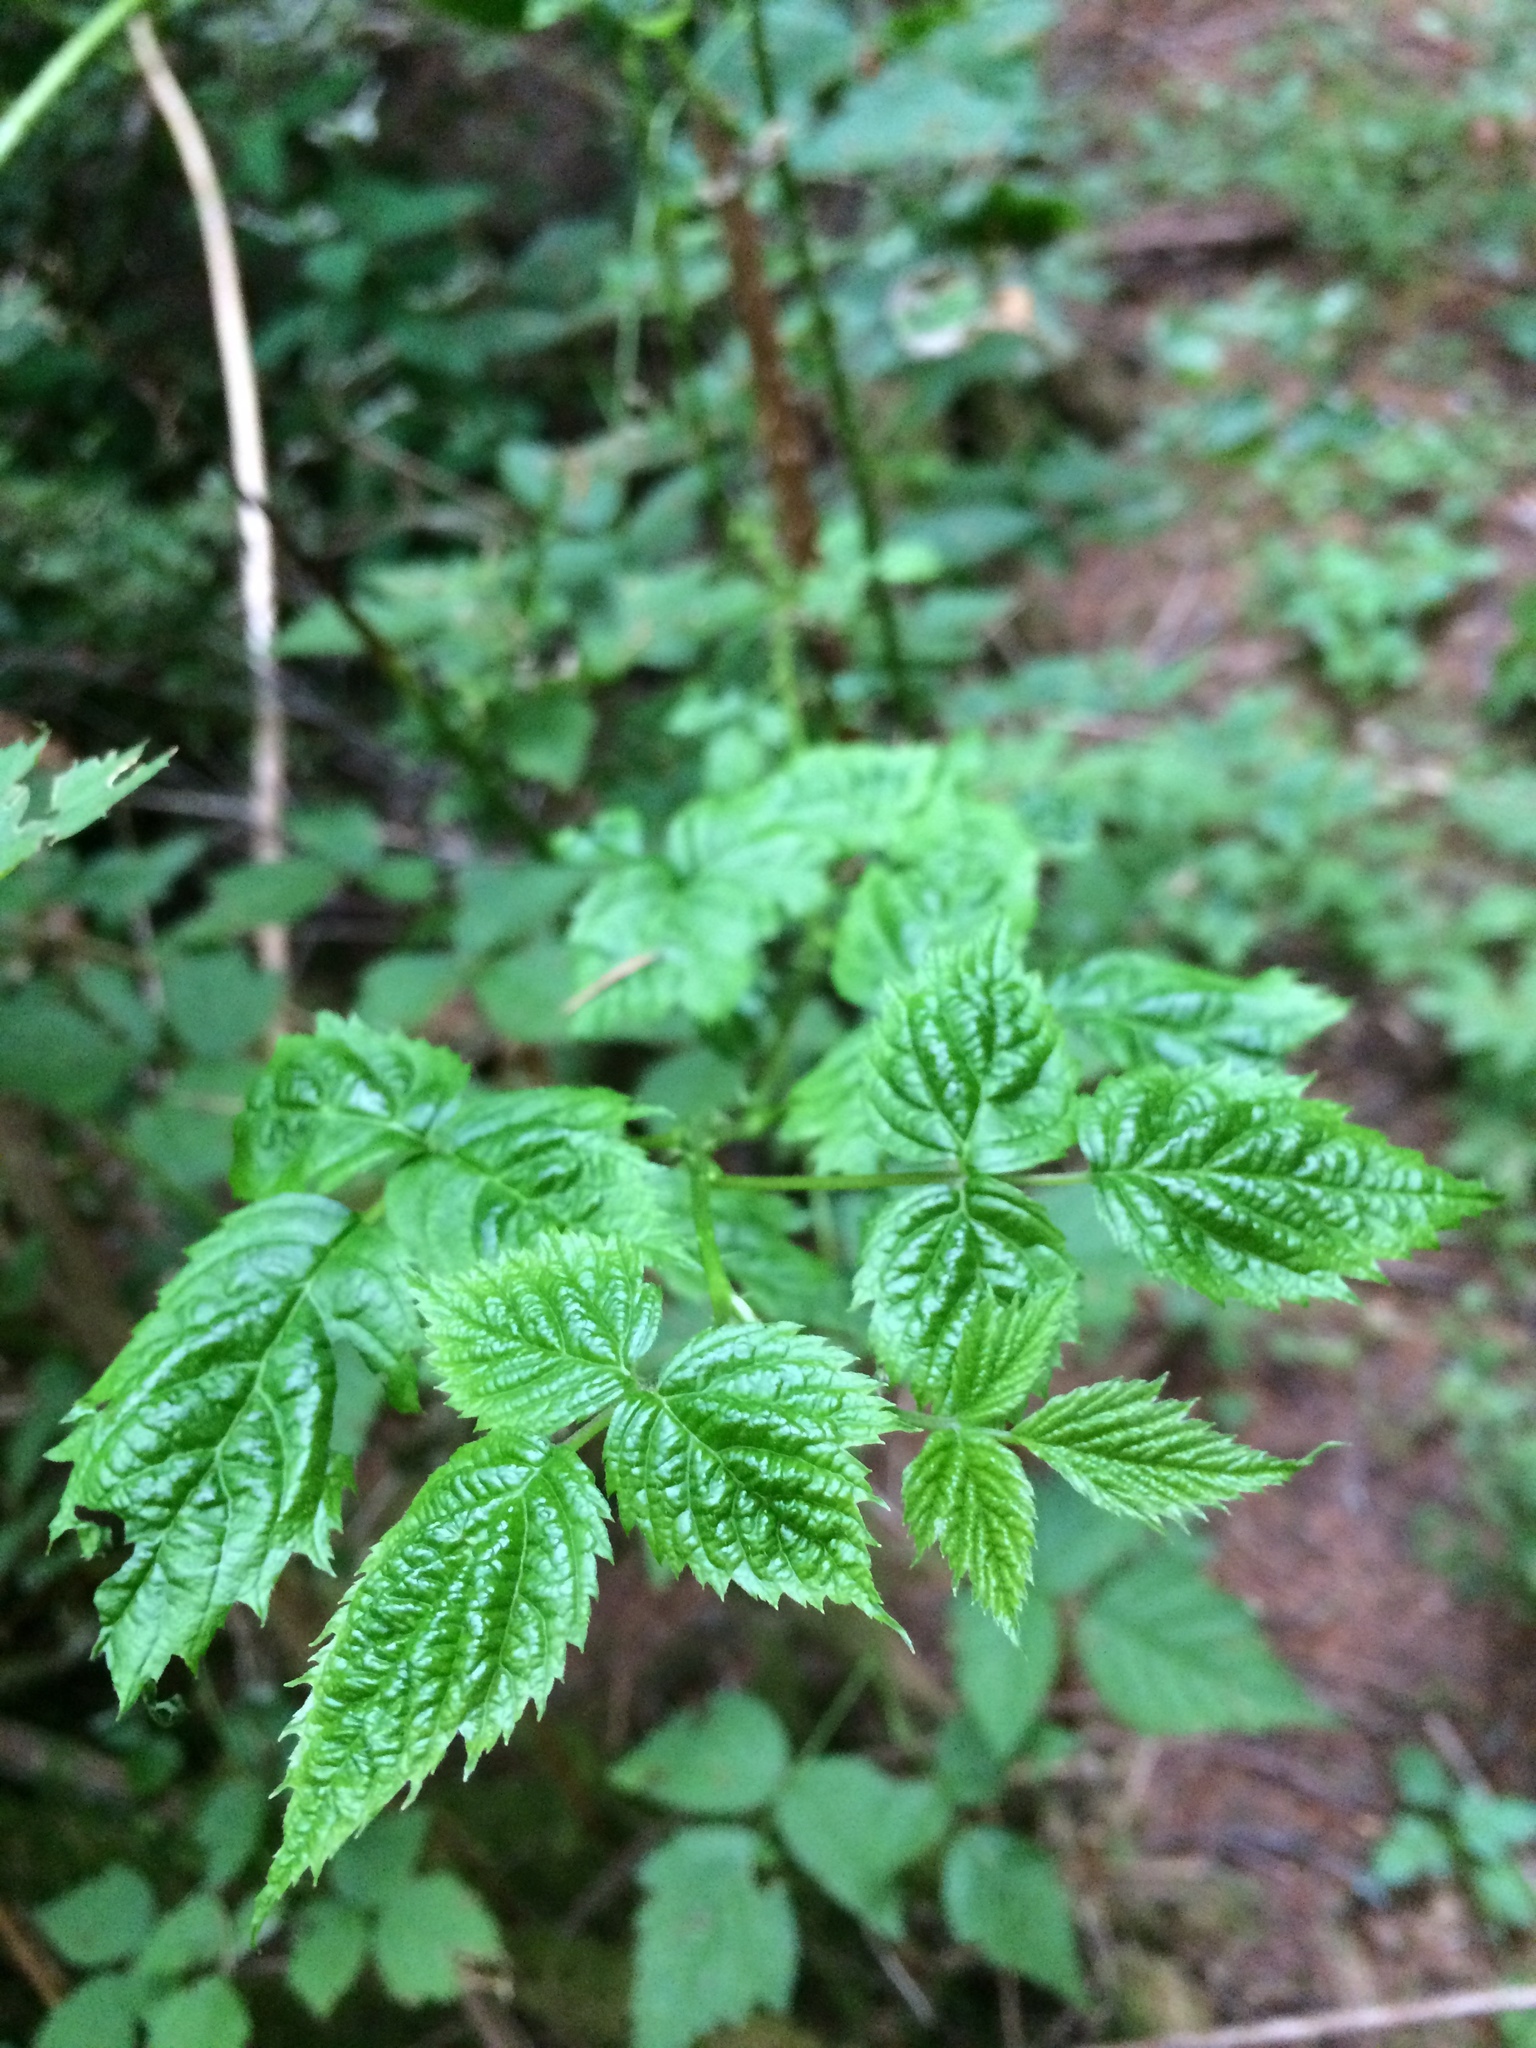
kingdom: Plantae
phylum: Tracheophyta
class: Magnoliopsida
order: Rosales
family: Rosaceae
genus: Rubus
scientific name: Rubus spectabilis
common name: Salmonberry
